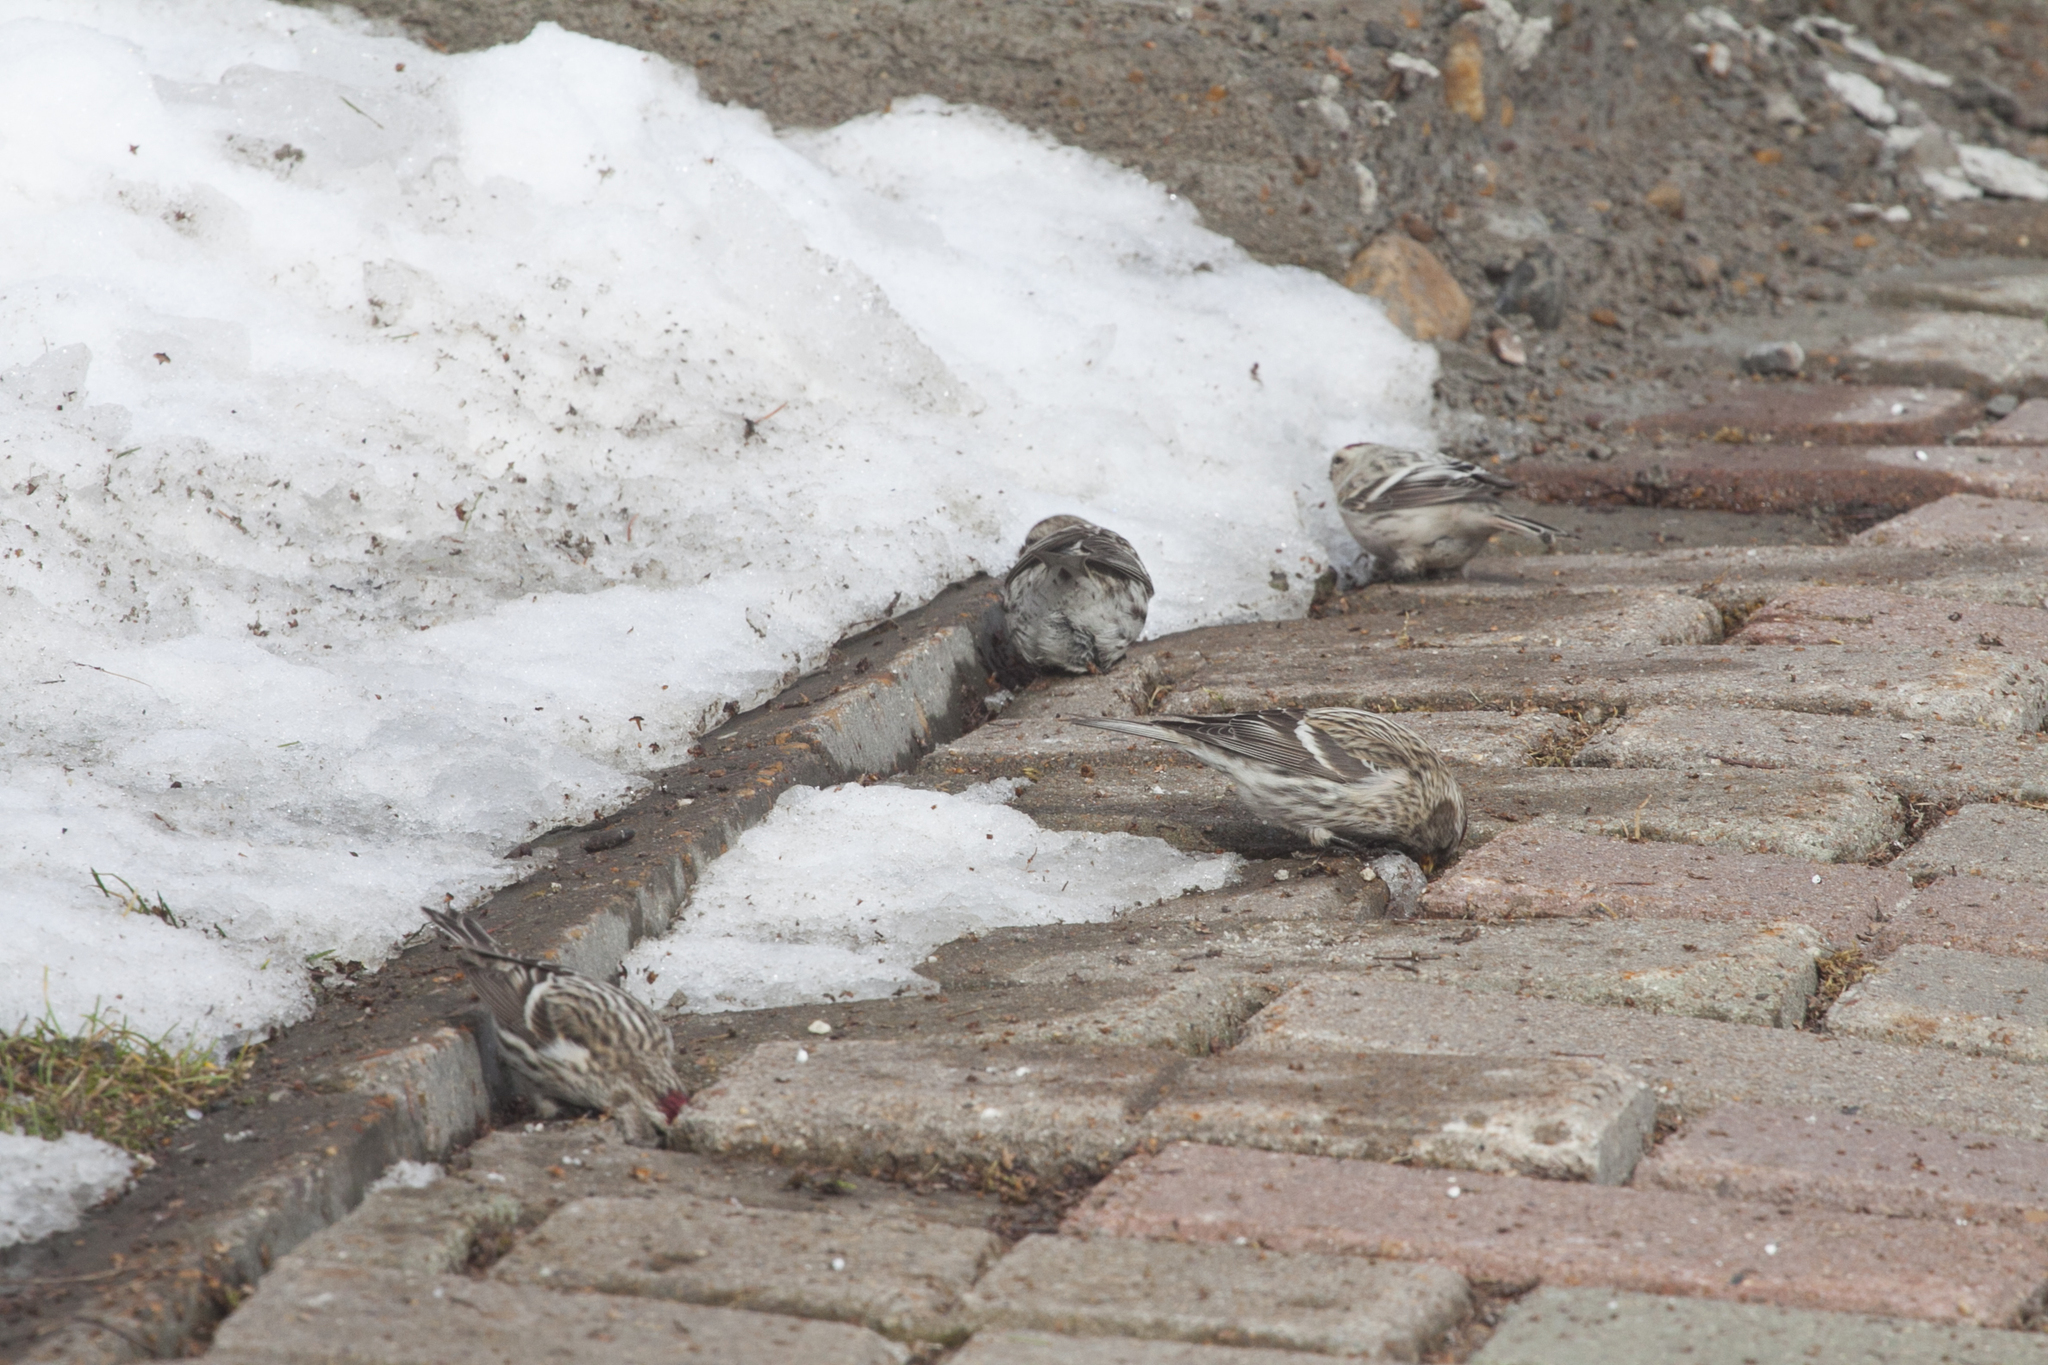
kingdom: Animalia
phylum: Chordata
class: Aves
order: Passeriformes
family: Fringillidae
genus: Acanthis
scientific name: Acanthis flammea
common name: Common redpoll
